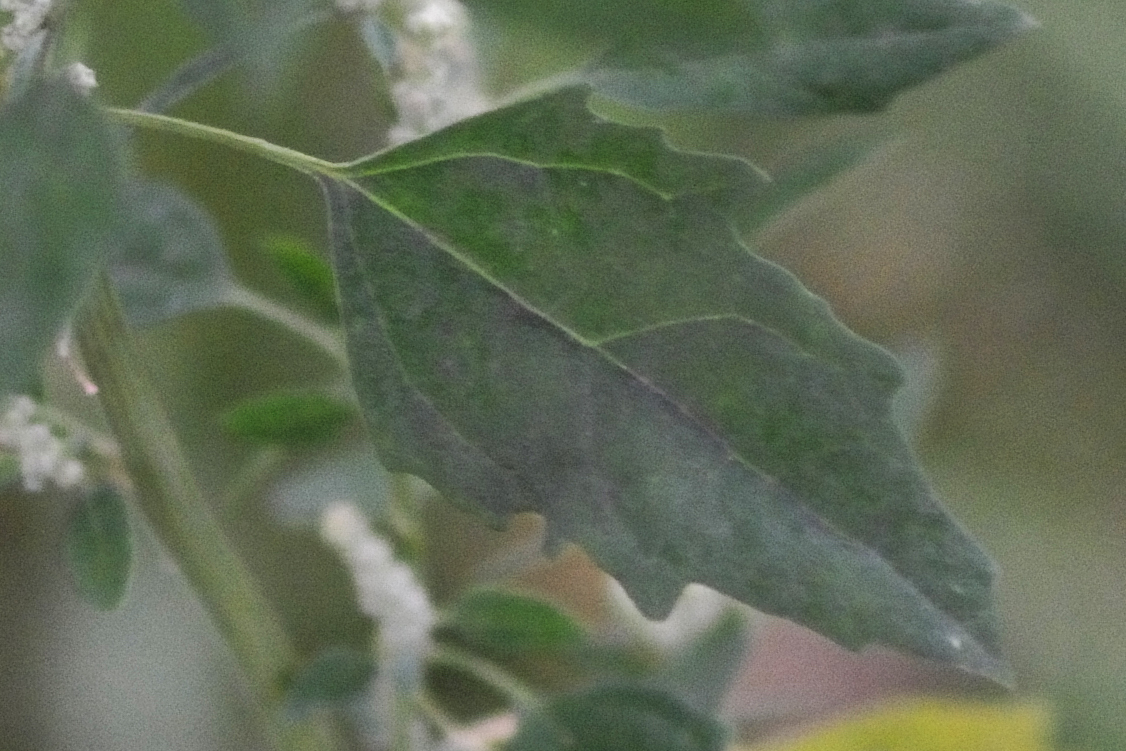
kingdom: Plantae
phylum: Tracheophyta
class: Magnoliopsida
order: Caryophyllales
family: Amaranthaceae
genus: Chenopodium
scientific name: Chenopodium album
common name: Fat-hen
